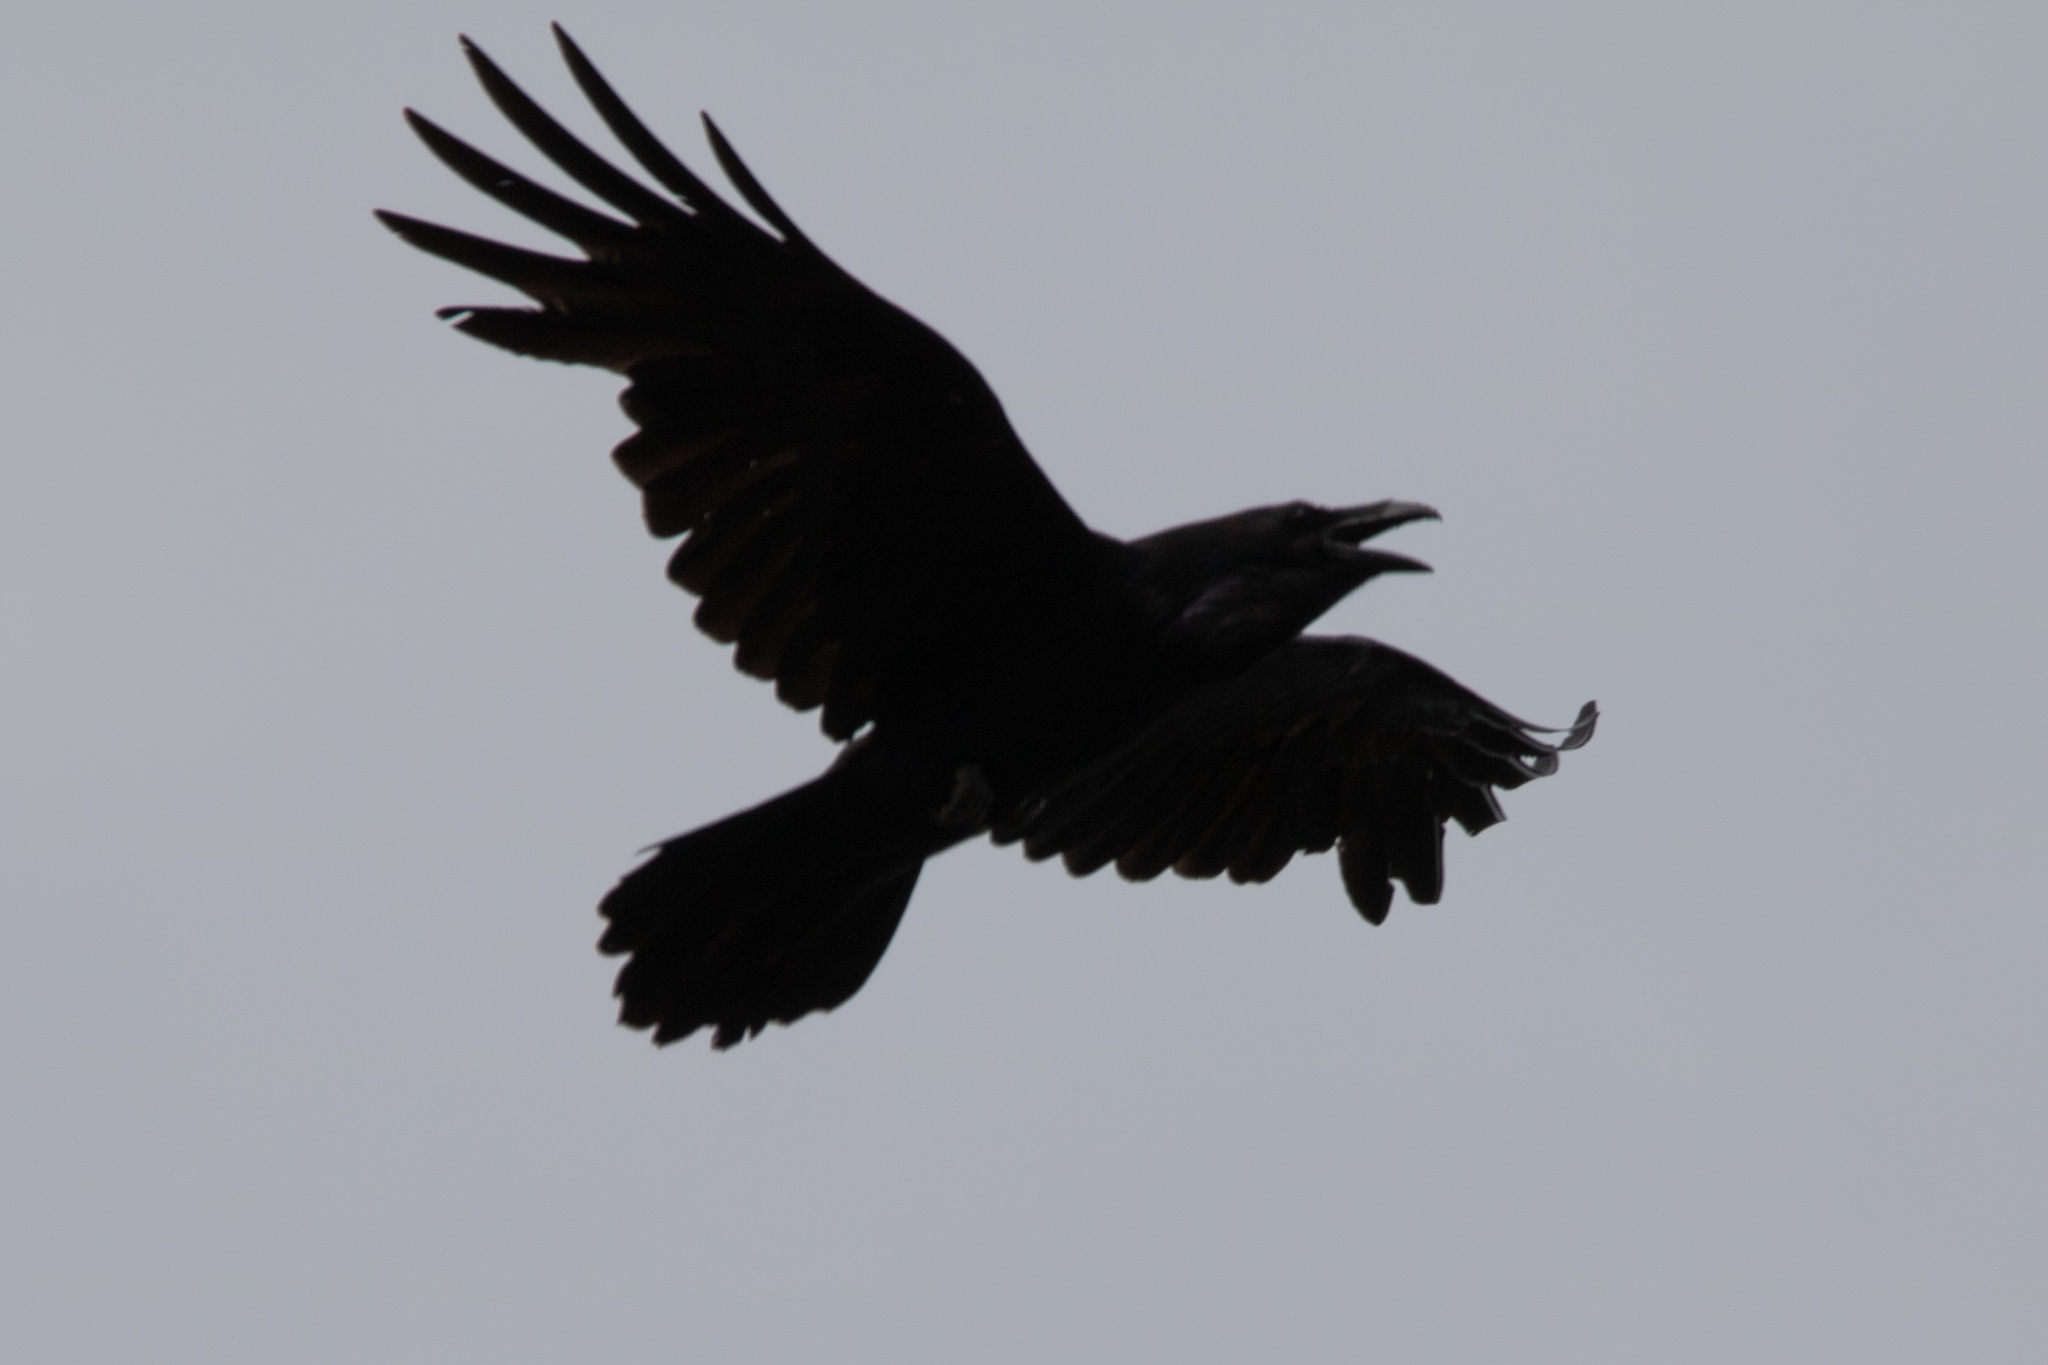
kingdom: Animalia
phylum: Chordata
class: Aves
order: Passeriformes
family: Corvidae
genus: Corvus
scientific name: Corvus corax
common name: Common raven
